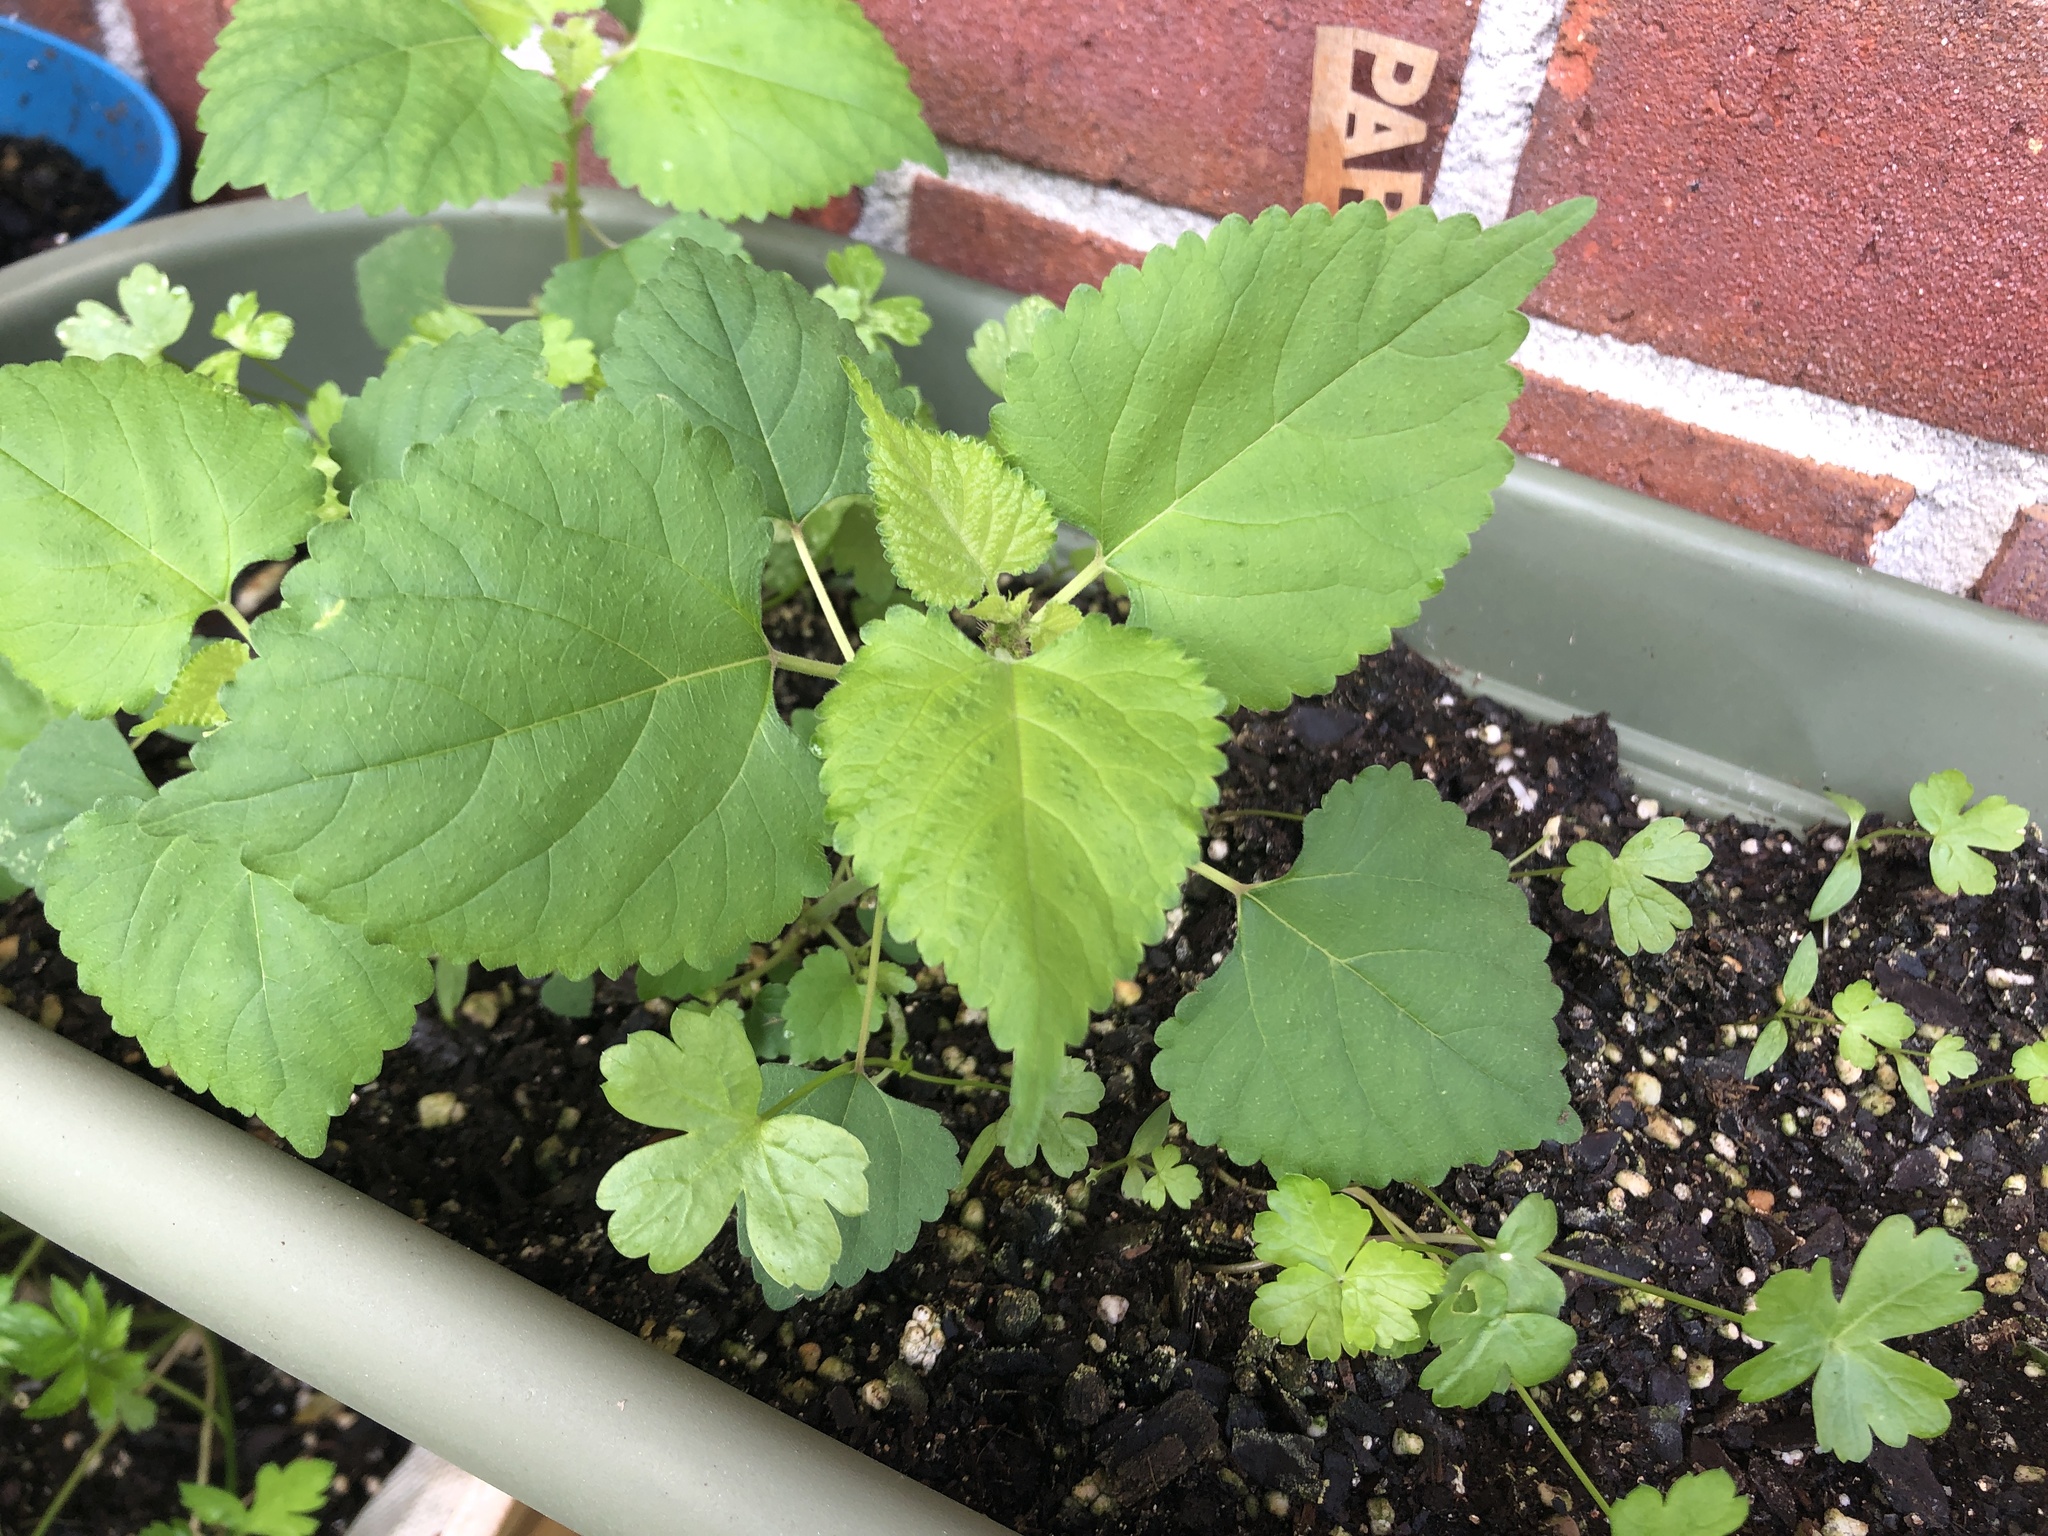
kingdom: Plantae
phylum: Tracheophyta
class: Magnoliopsida
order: Rosales
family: Moraceae
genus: Fatoua
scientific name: Fatoua villosa
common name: Hairy crabweed
